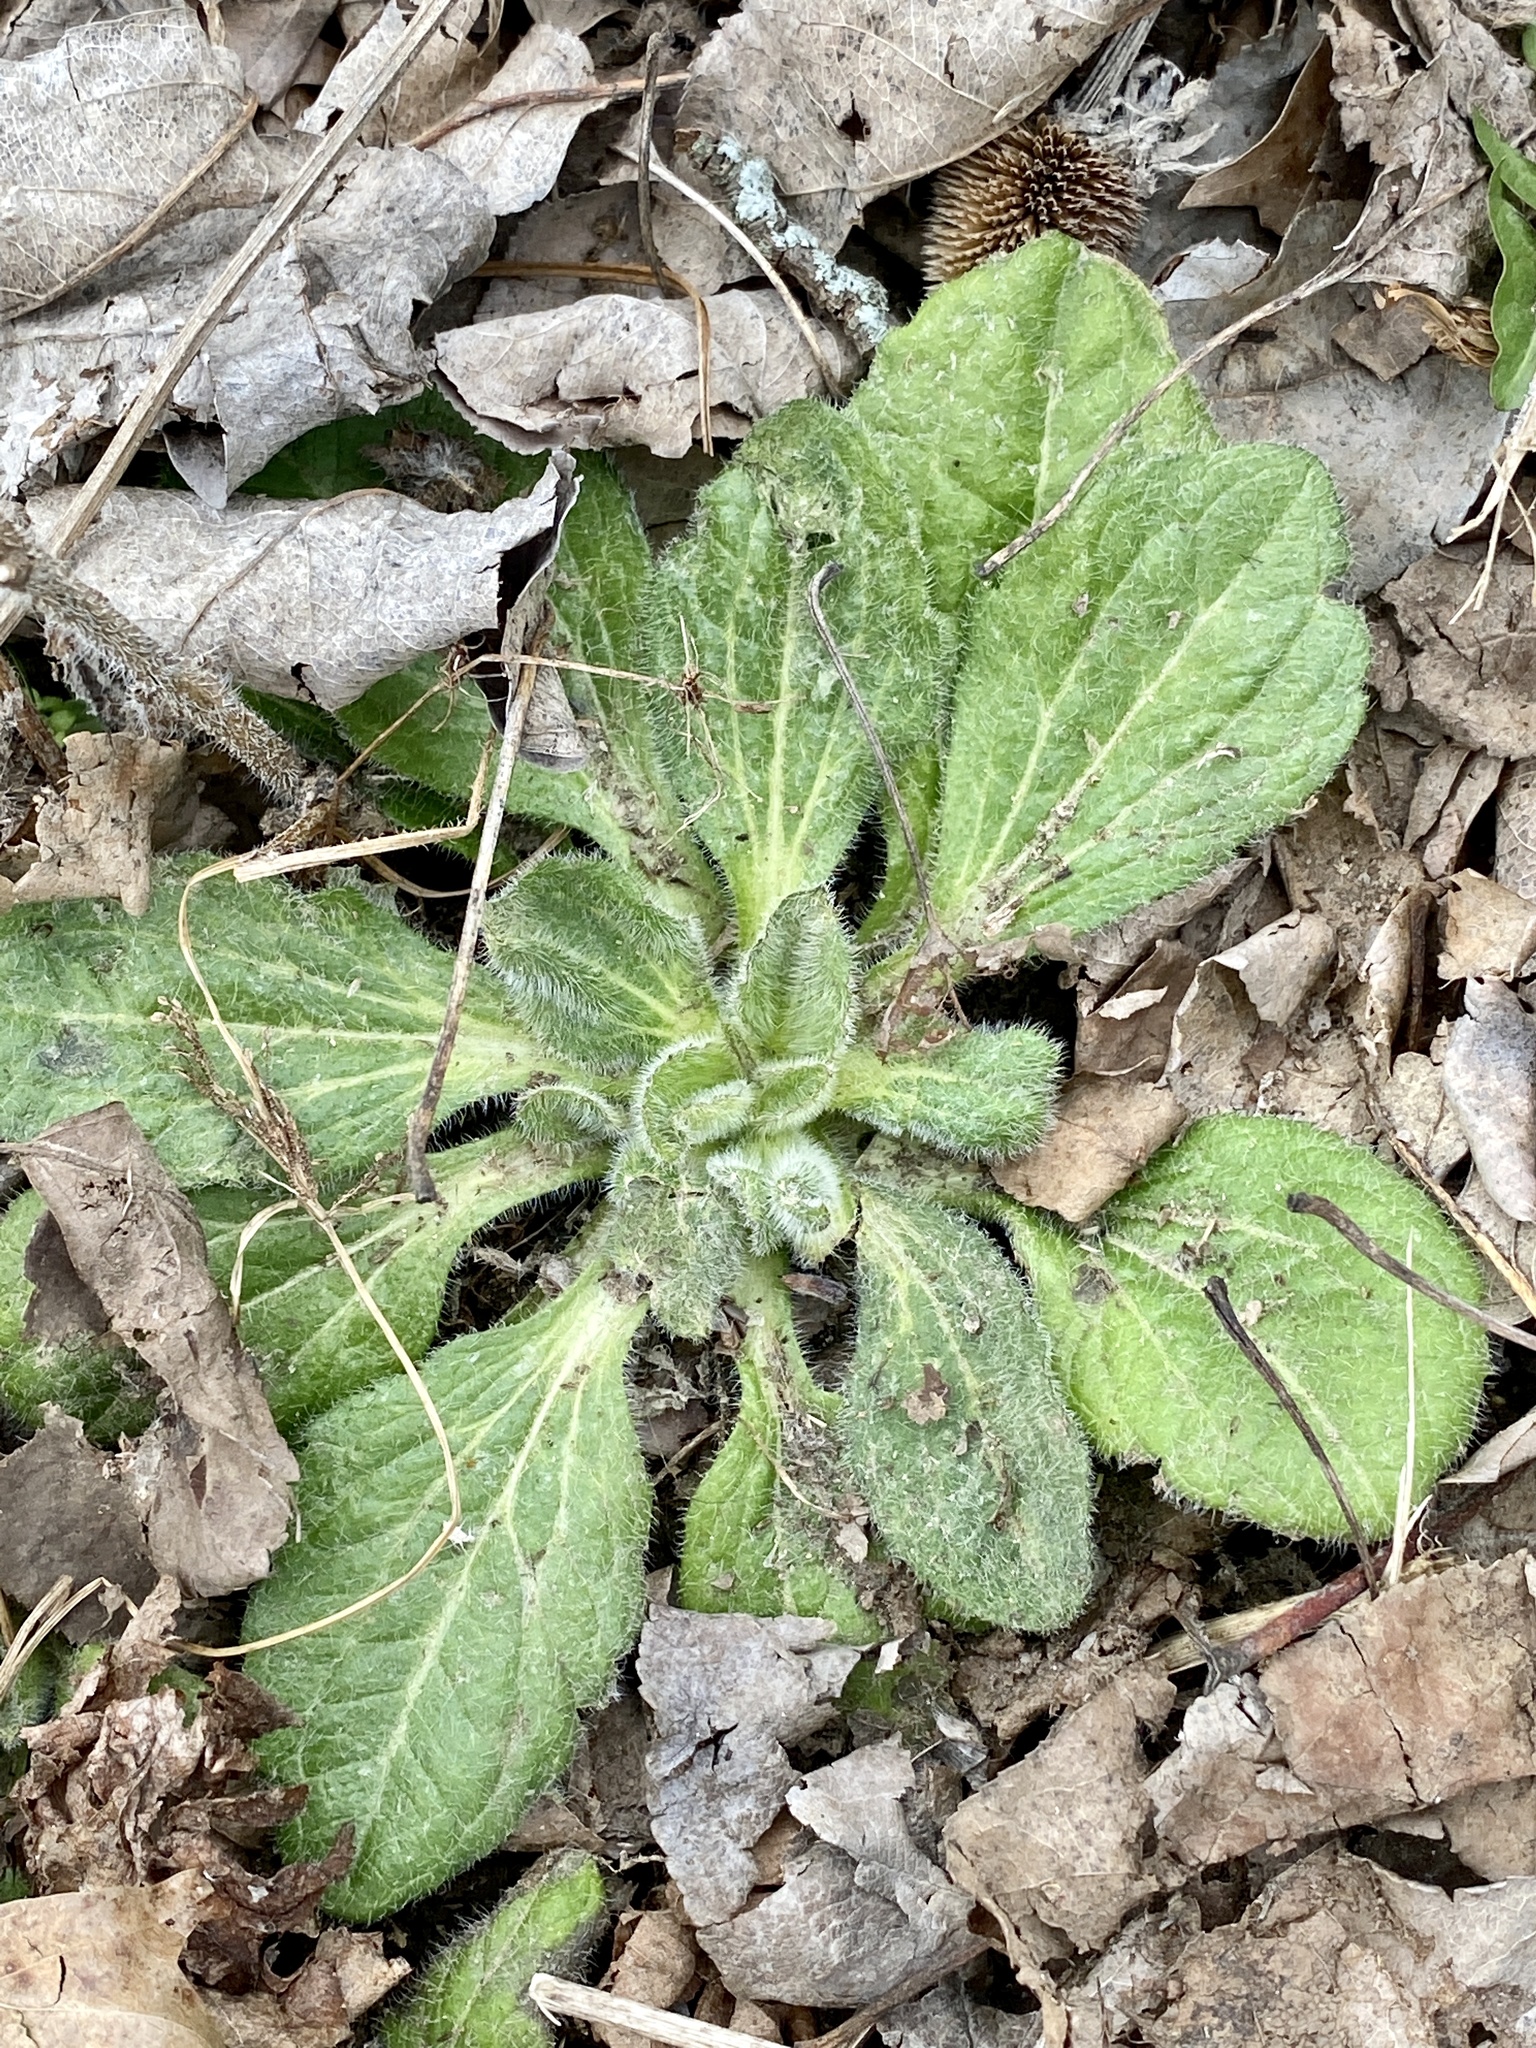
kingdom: Plantae
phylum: Tracheophyta
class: Magnoliopsida
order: Asterales
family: Asteraceae
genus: Rudbeckia
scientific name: Rudbeckia hirta
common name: Black-eyed-susan
